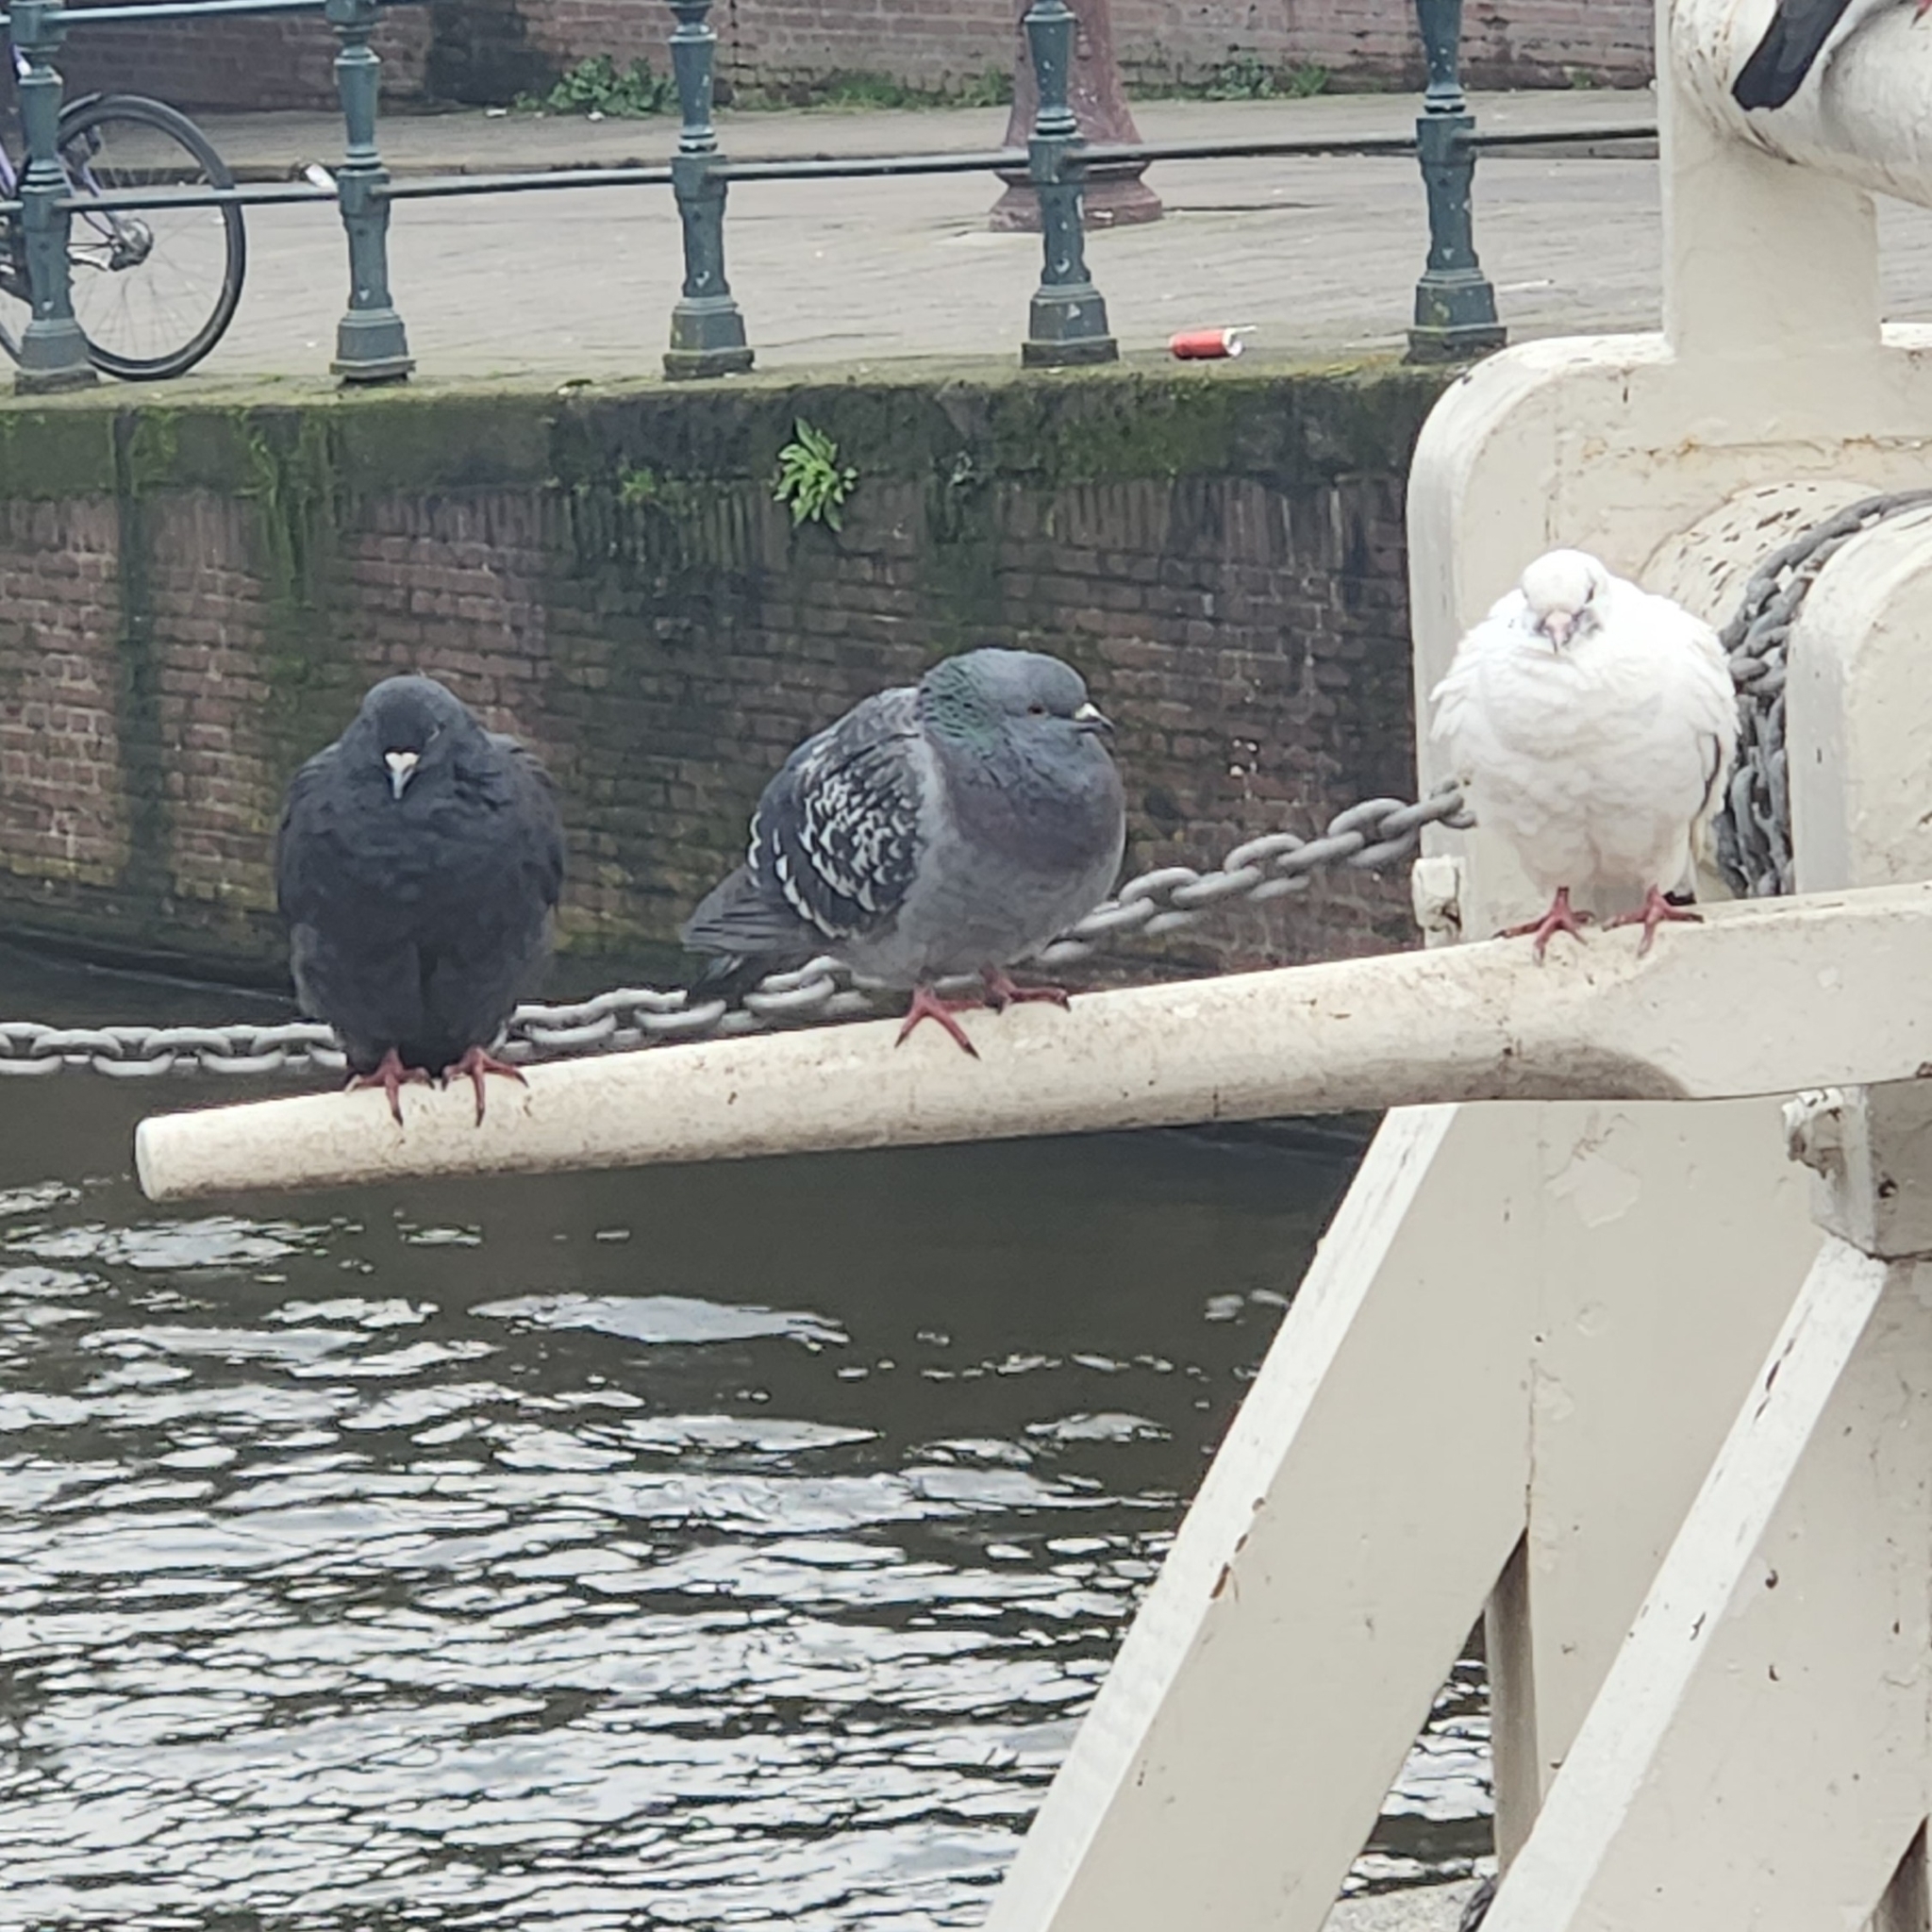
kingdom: Animalia
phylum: Chordata
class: Aves
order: Columbiformes
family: Columbidae
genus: Columba
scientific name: Columba livia
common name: Rock pigeon
